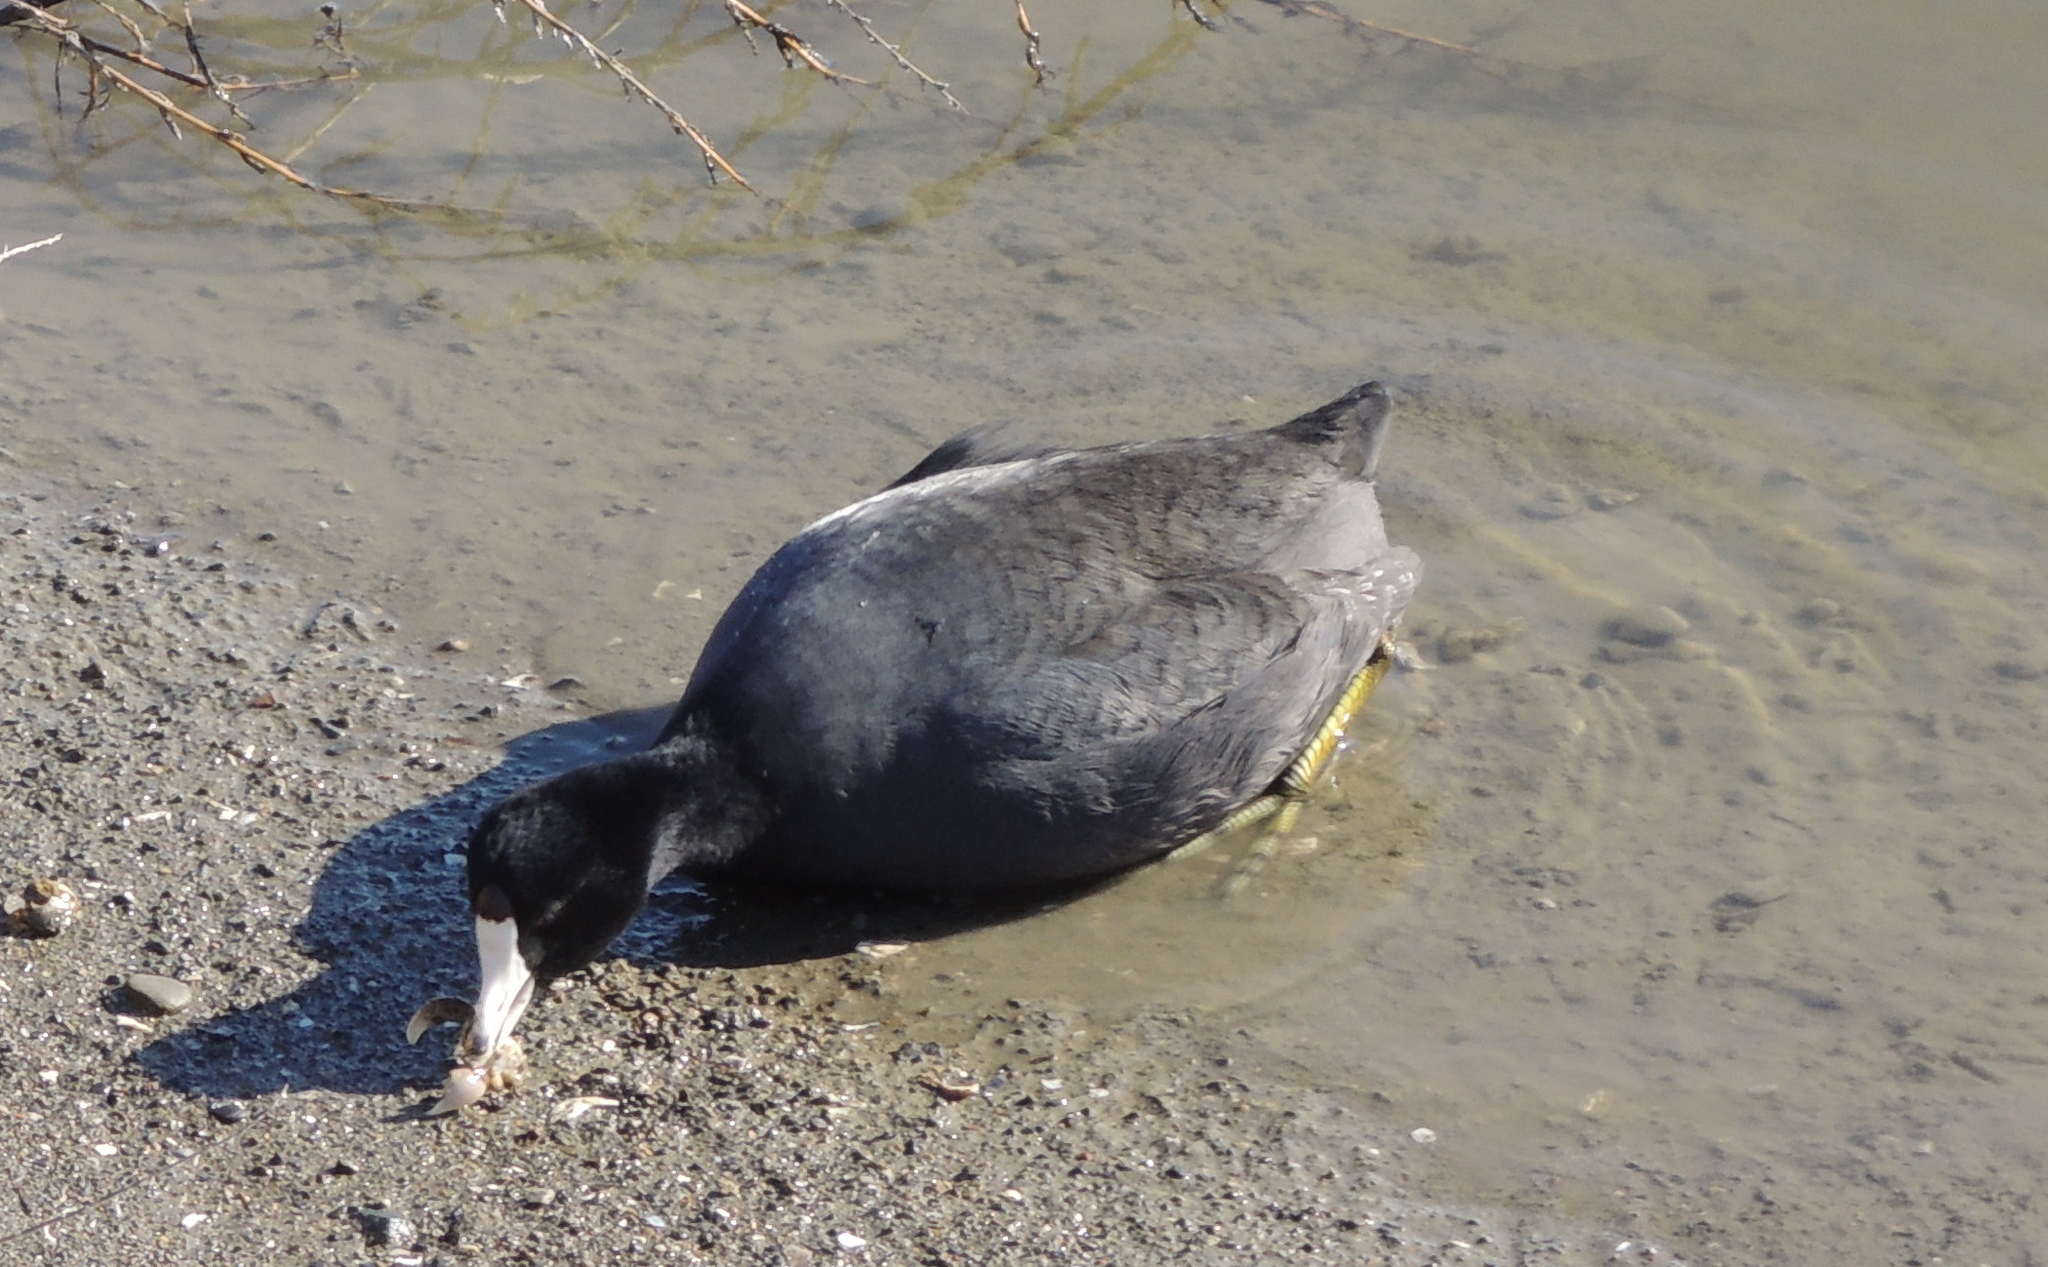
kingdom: Animalia
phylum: Chordata
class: Aves
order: Gruiformes
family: Rallidae
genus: Fulica
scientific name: Fulica americana
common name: American coot
